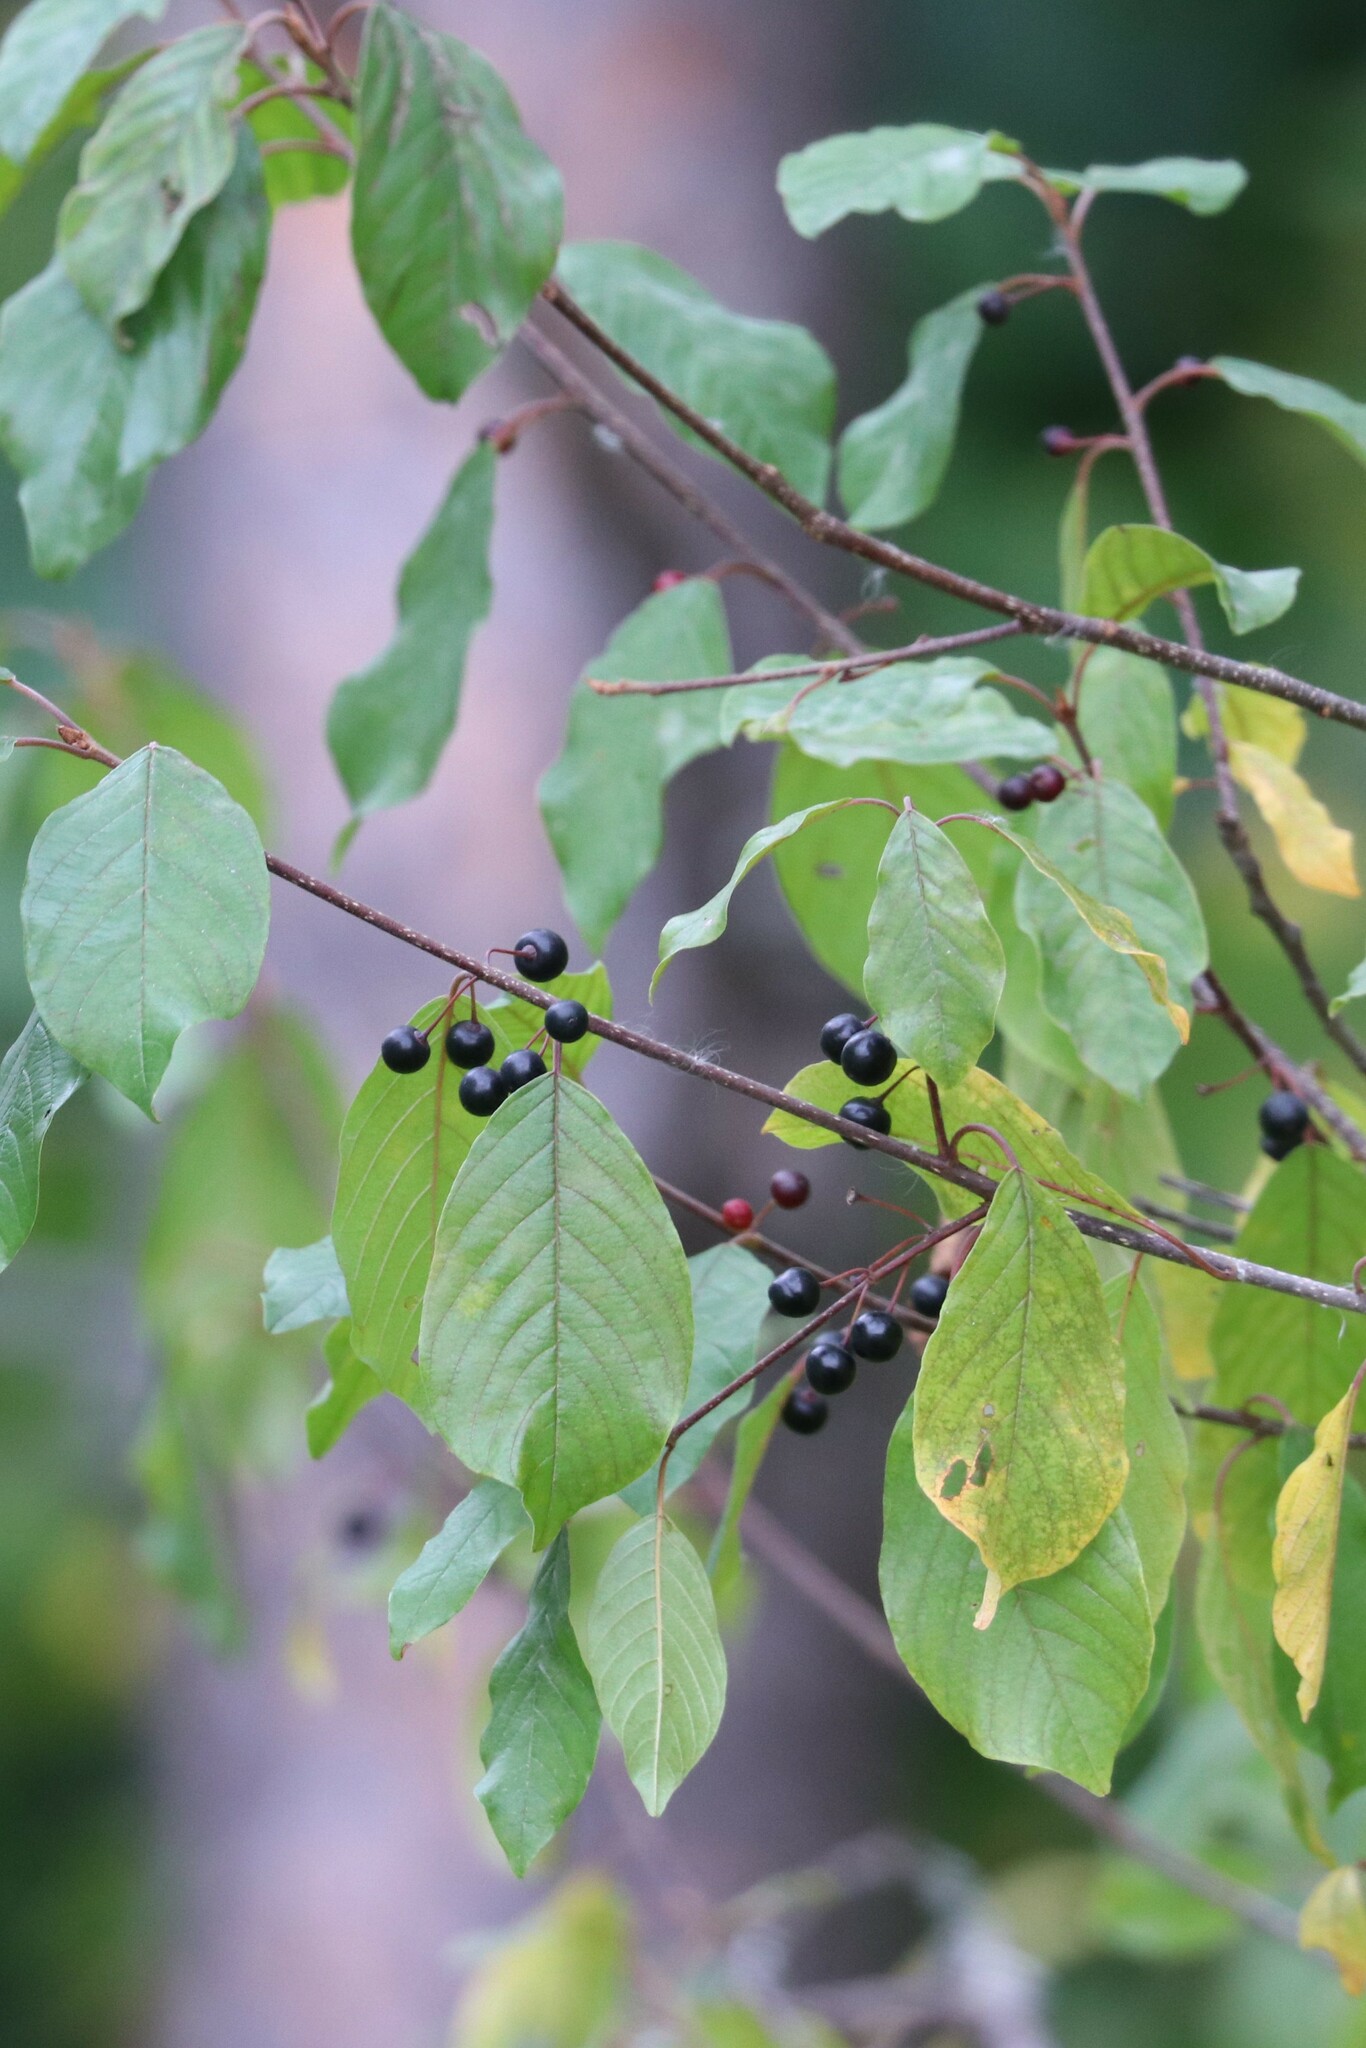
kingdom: Plantae
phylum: Tracheophyta
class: Magnoliopsida
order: Rosales
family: Rhamnaceae
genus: Frangula
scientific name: Frangula alnus
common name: Alder buckthorn
